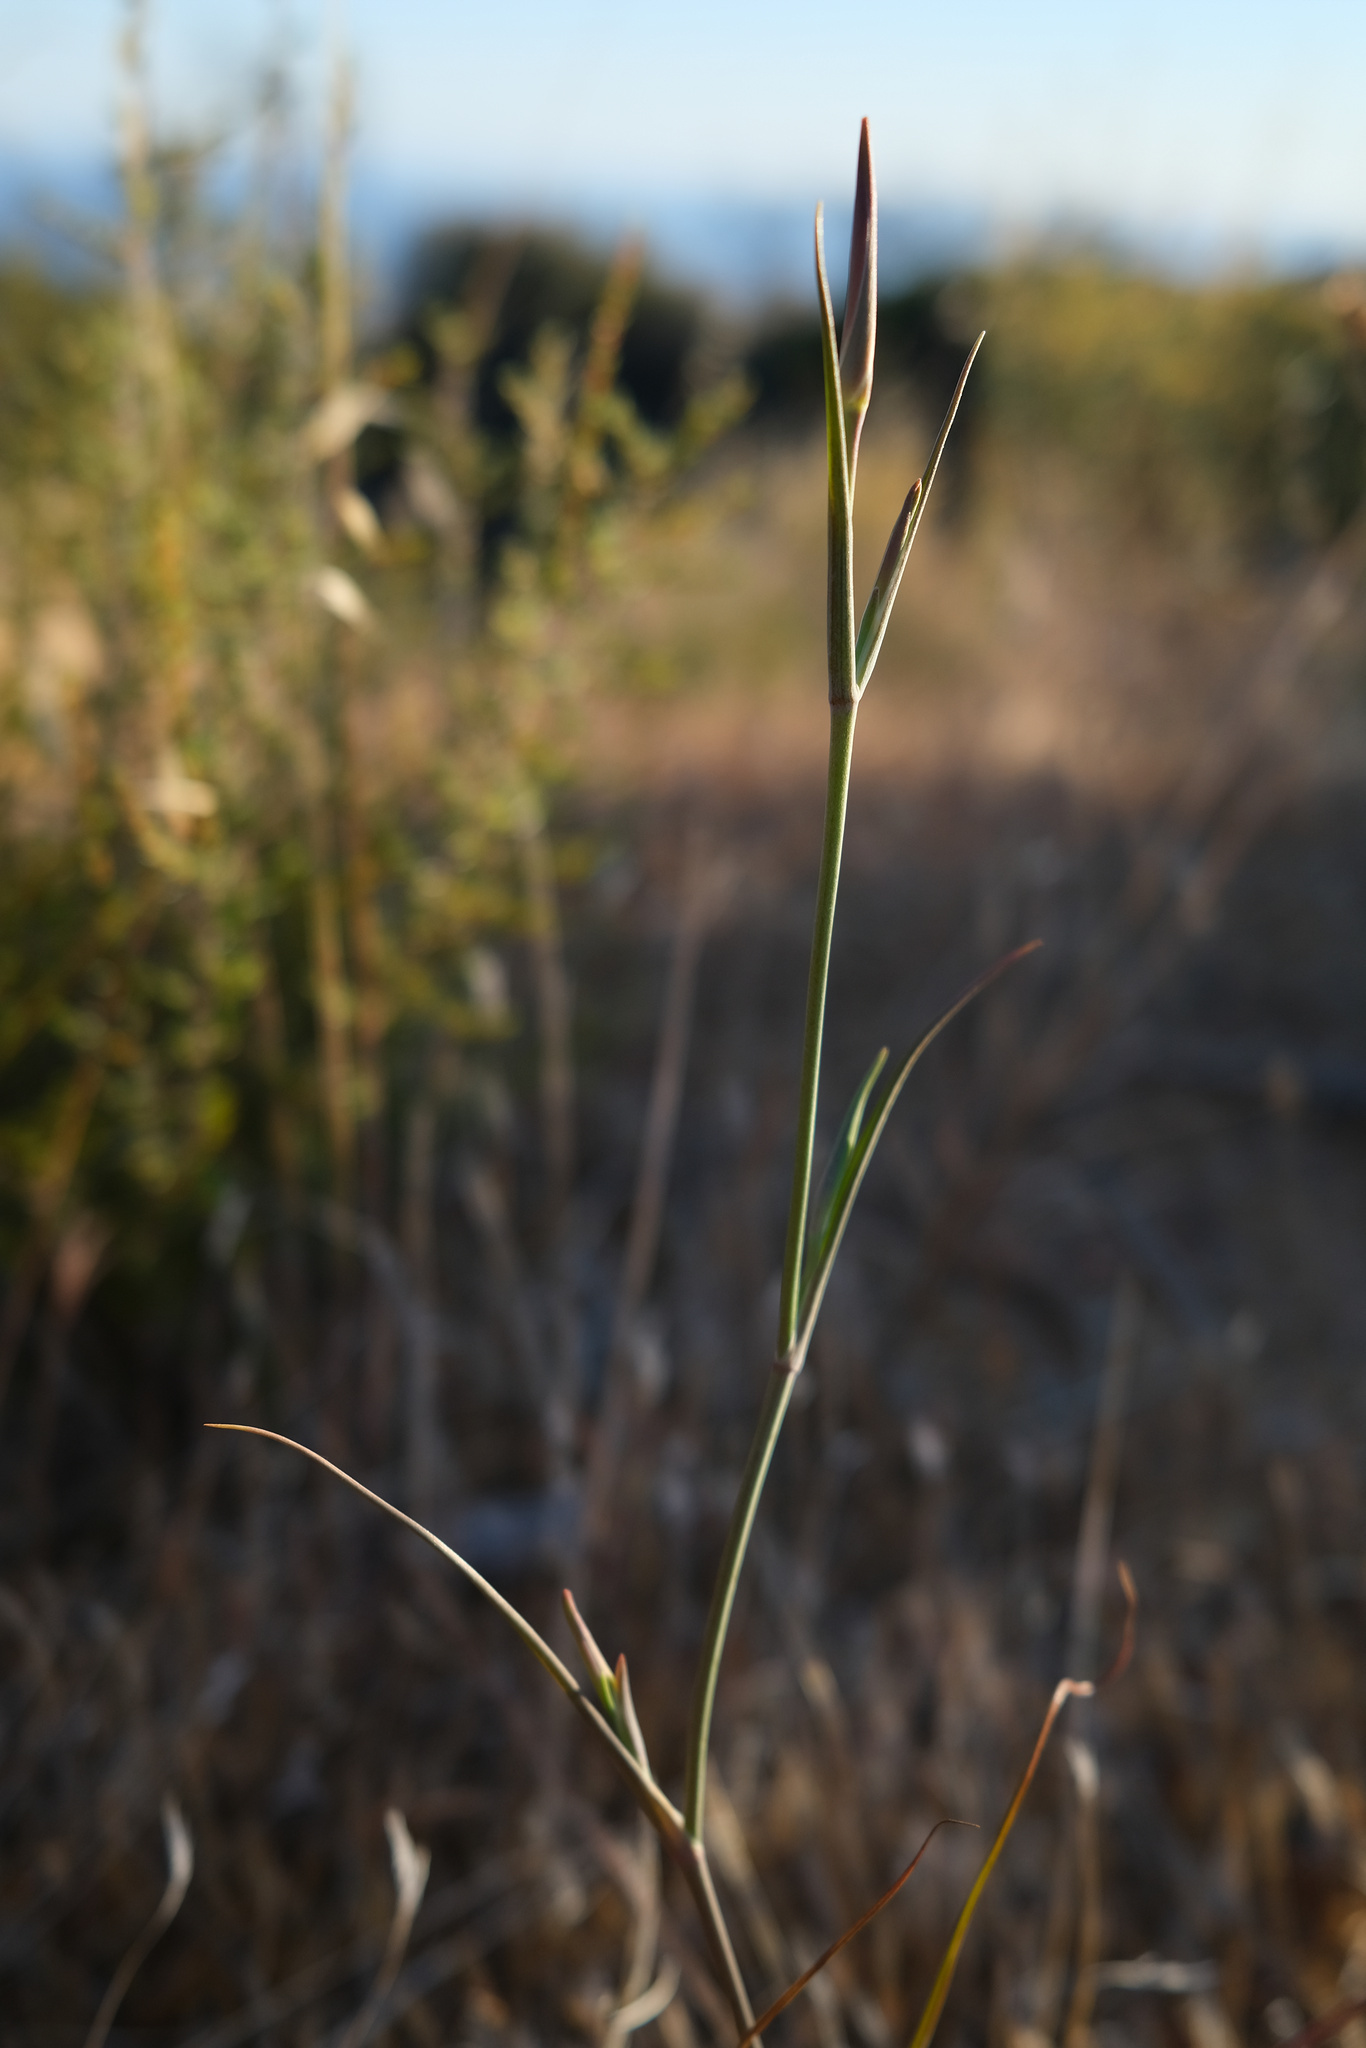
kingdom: Plantae
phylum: Tracheophyta
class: Liliopsida
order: Liliales
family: Liliaceae
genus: Calochortus
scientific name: Calochortus fimbriatus
